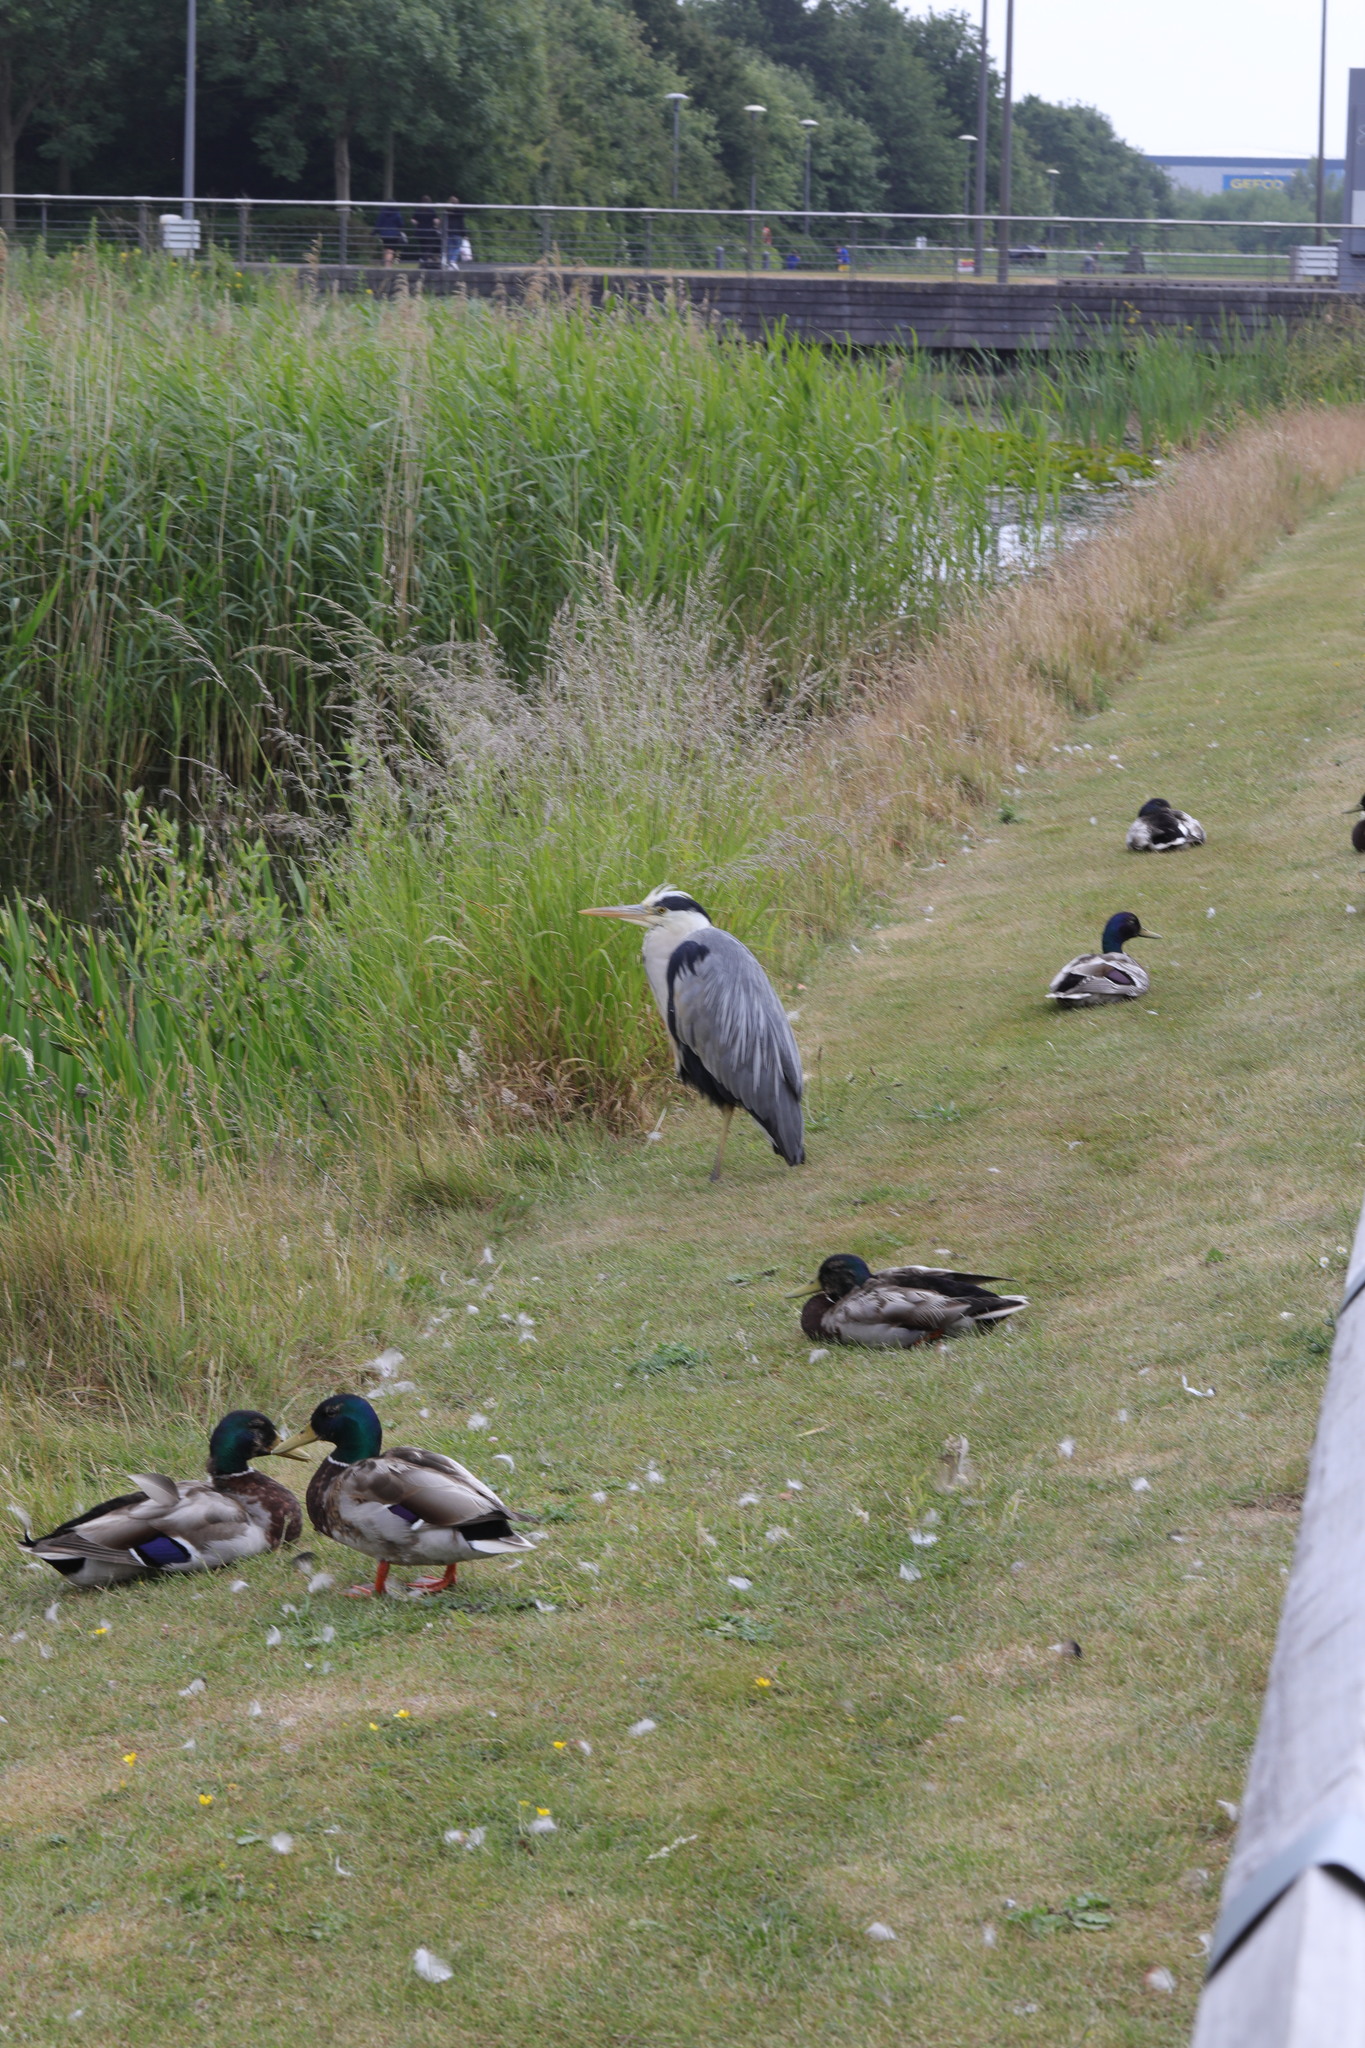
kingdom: Animalia
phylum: Chordata
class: Aves
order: Anseriformes
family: Anatidae
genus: Anas
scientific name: Anas platyrhynchos
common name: Mallard
